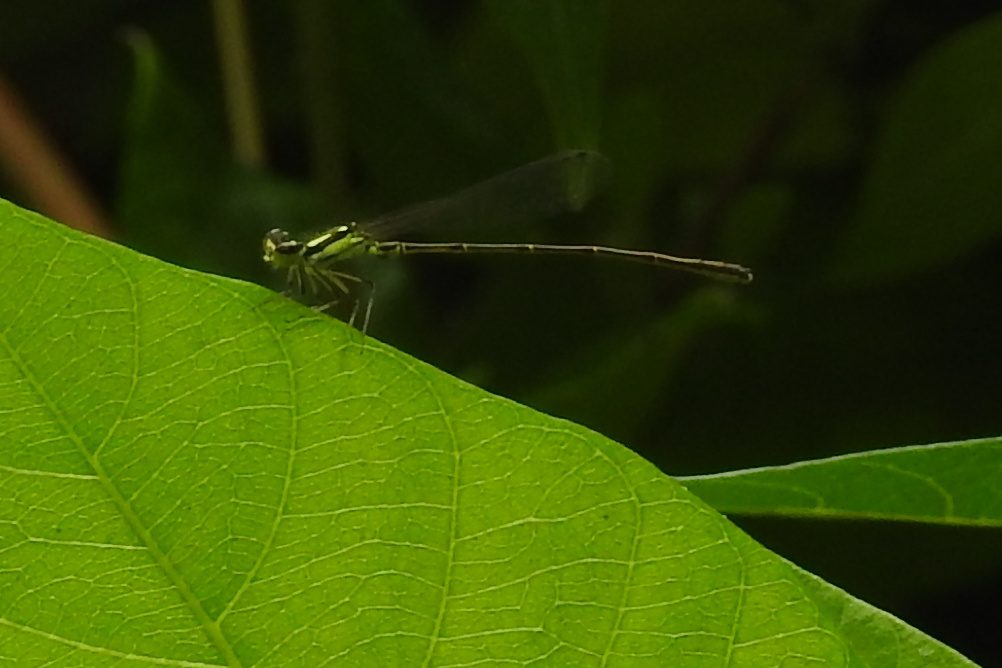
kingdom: Animalia
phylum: Arthropoda
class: Insecta
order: Odonata
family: Coenagrionidae
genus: Ischnura
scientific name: Ischnura posita
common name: Fragile forktail
